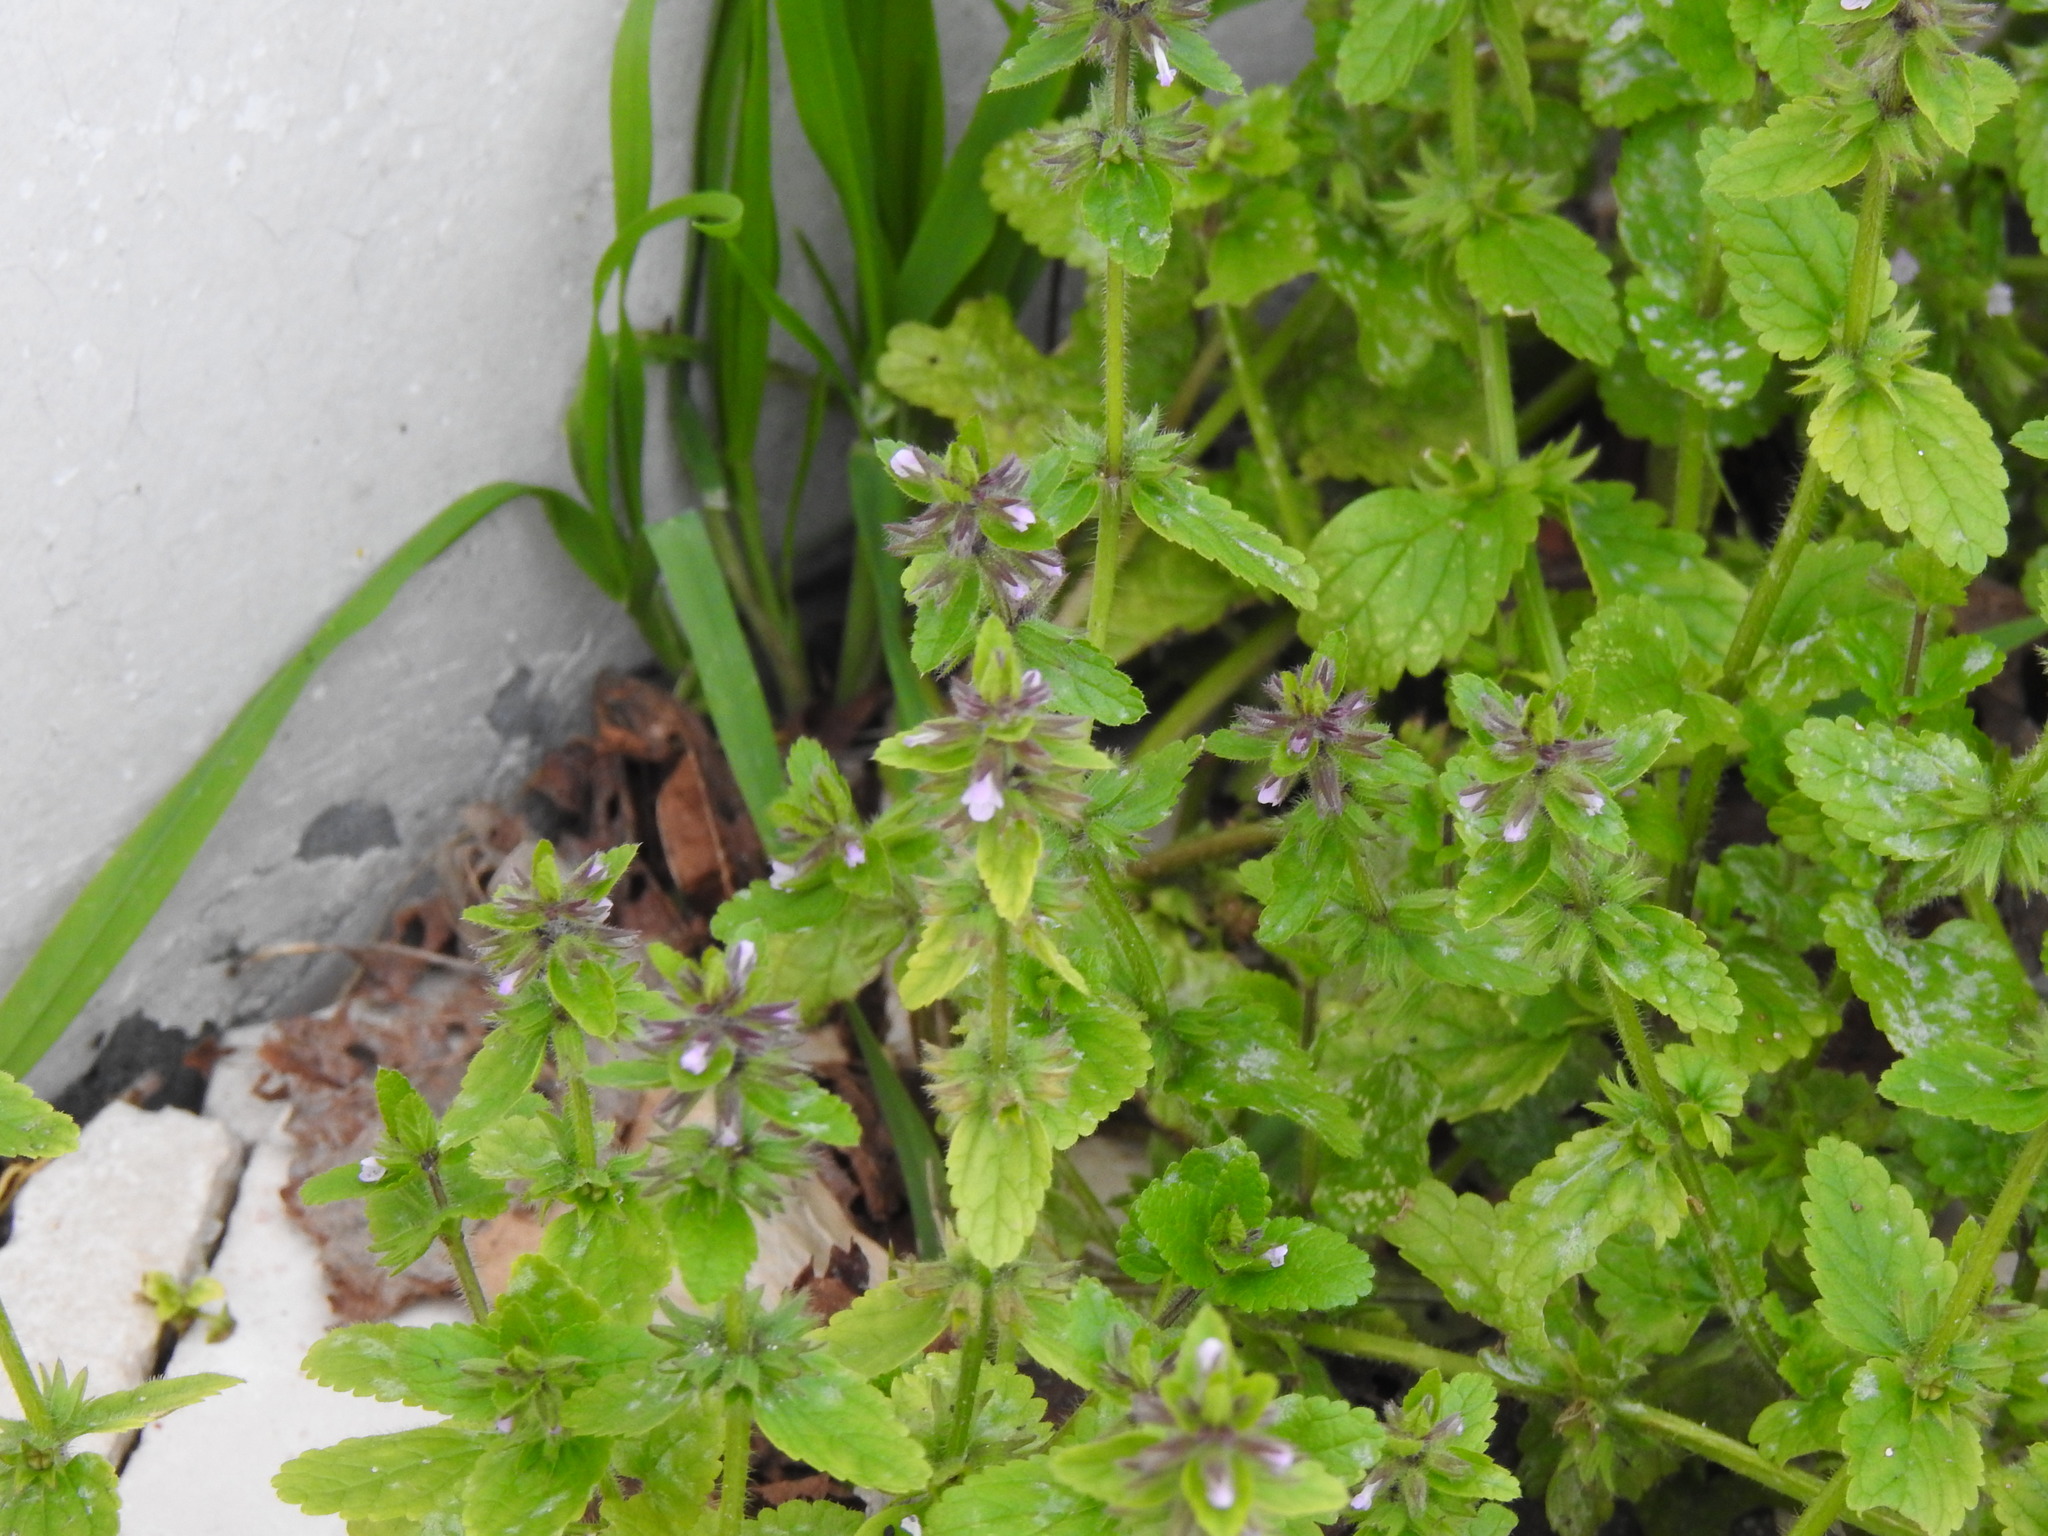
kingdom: Plantae
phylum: Tracheophyta
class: Magnoliopsida
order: Lamiales
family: Lamiaceae
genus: Stachys
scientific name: Stachys arvensis
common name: Field woundwort
